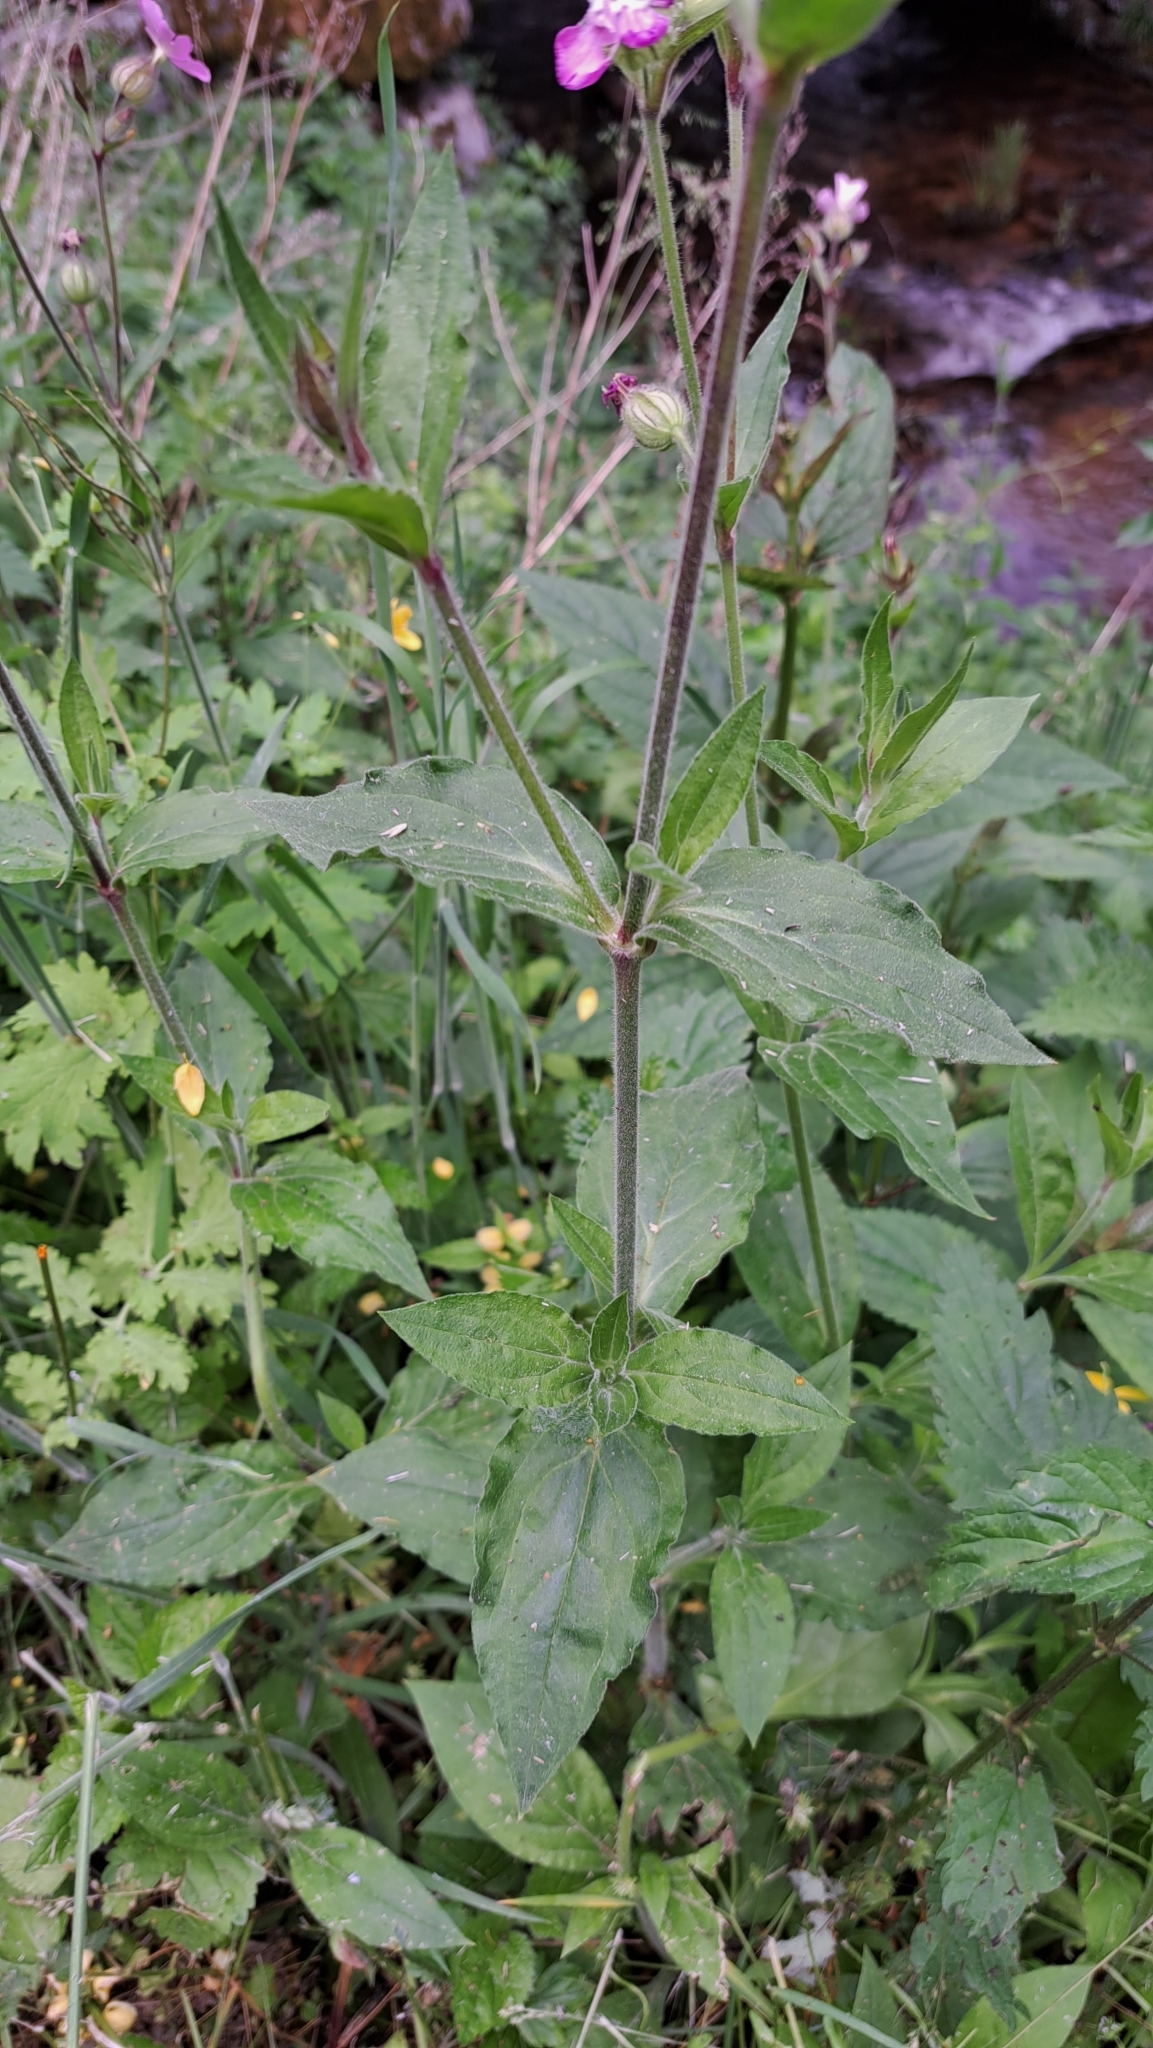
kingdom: Plantae
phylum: Tracheophyta
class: Magnoliopsida
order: Caryophyllales
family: Caryophyllaceae
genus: Silene
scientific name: Silene dioica
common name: Red campion
